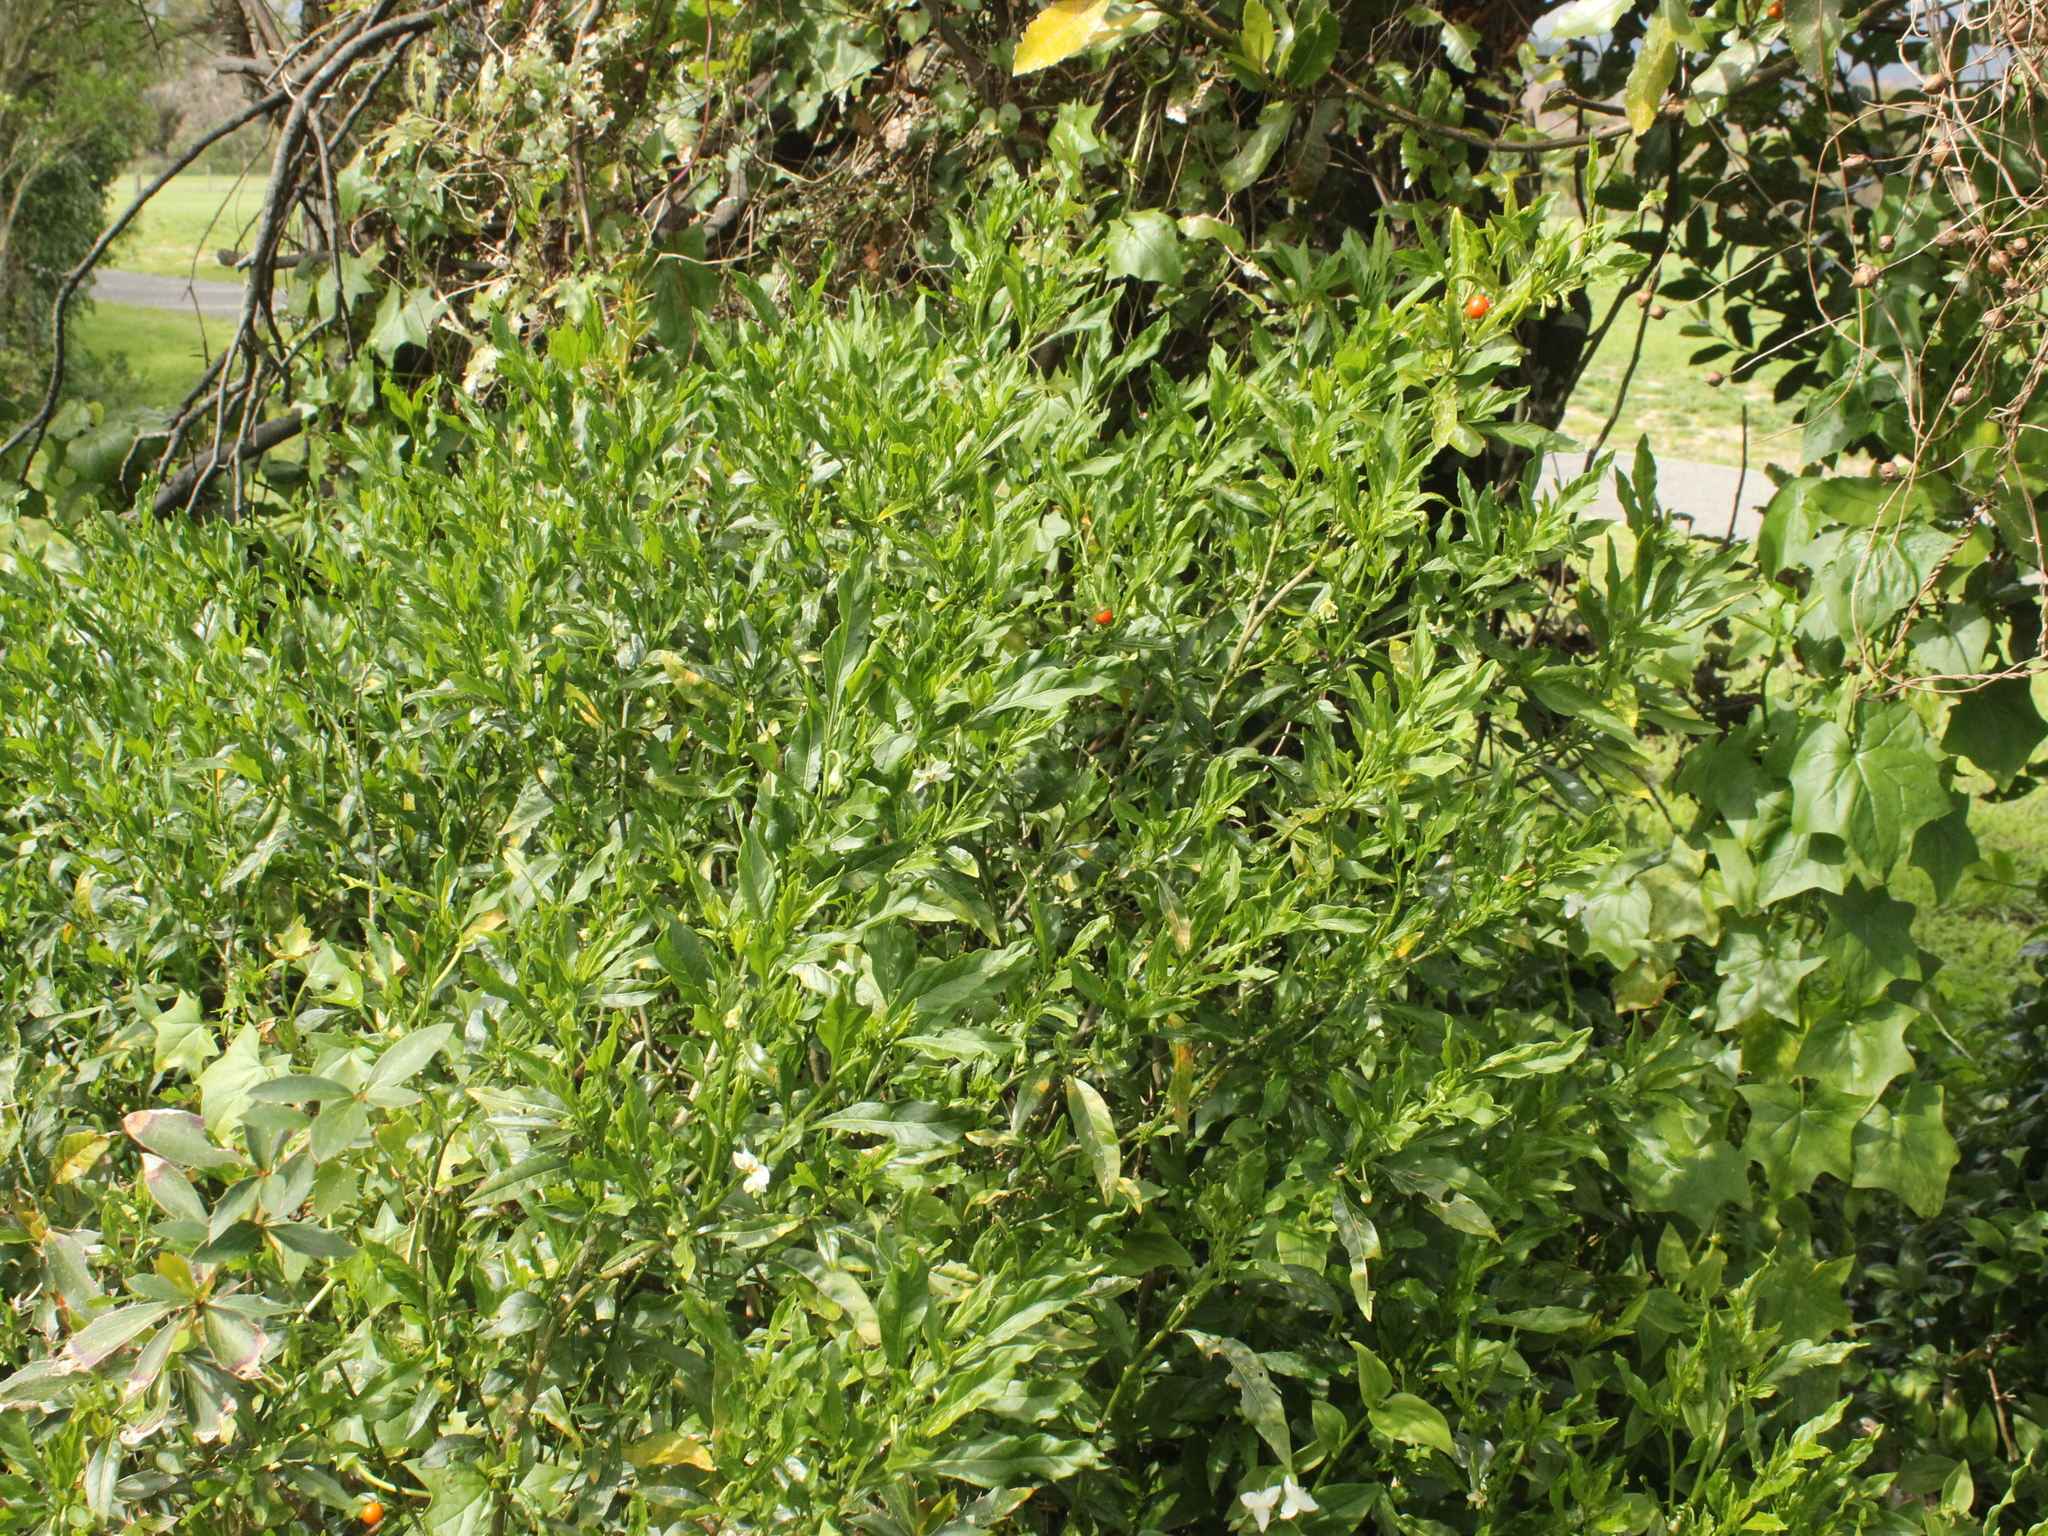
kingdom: Plantae
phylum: Tracheophyta
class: Magnoliopsida
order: Solanales
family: Solanaceae
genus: Solanum
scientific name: Solanum pseudocapsicum
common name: Jerusalem cherry
